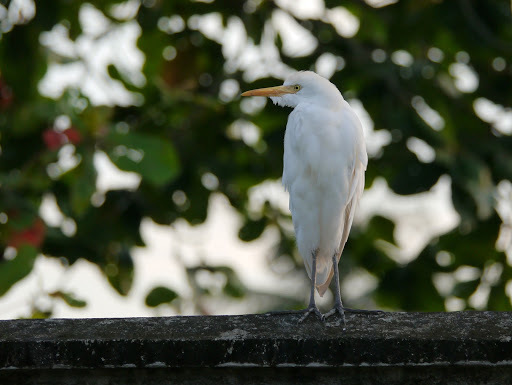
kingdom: Animalia
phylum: Chordata
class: Aves
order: Pelecaniformes
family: Ardeidae
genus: Bubulcus
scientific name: Bubulcus ibis
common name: Cattle egret
